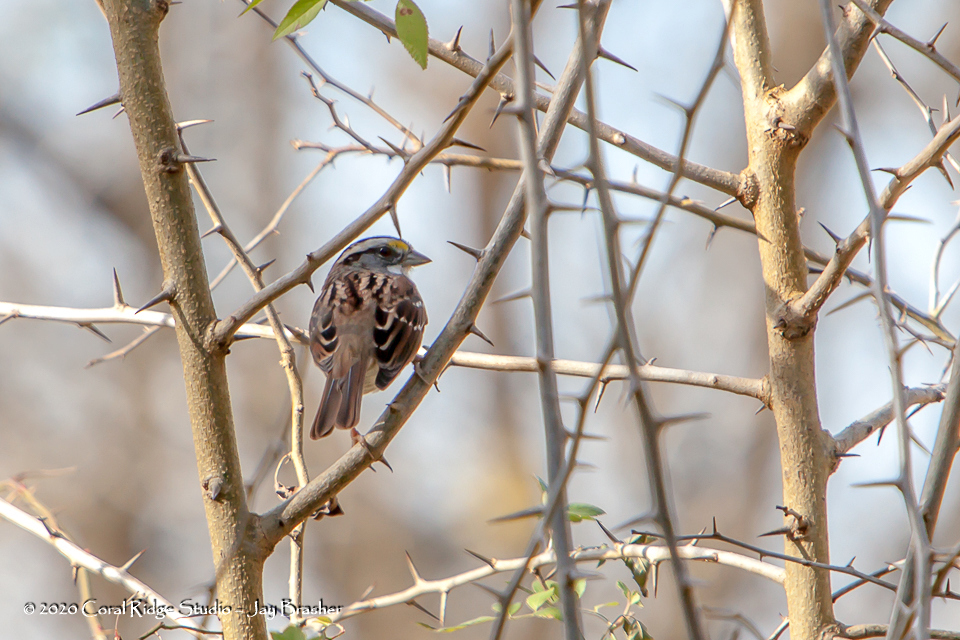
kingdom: Animalia
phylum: Chordata
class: Aves
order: Passeriformes
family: Passerellidae
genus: Zonotrichia
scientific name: Zonotrichia albicollis
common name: White-throated sparrow
